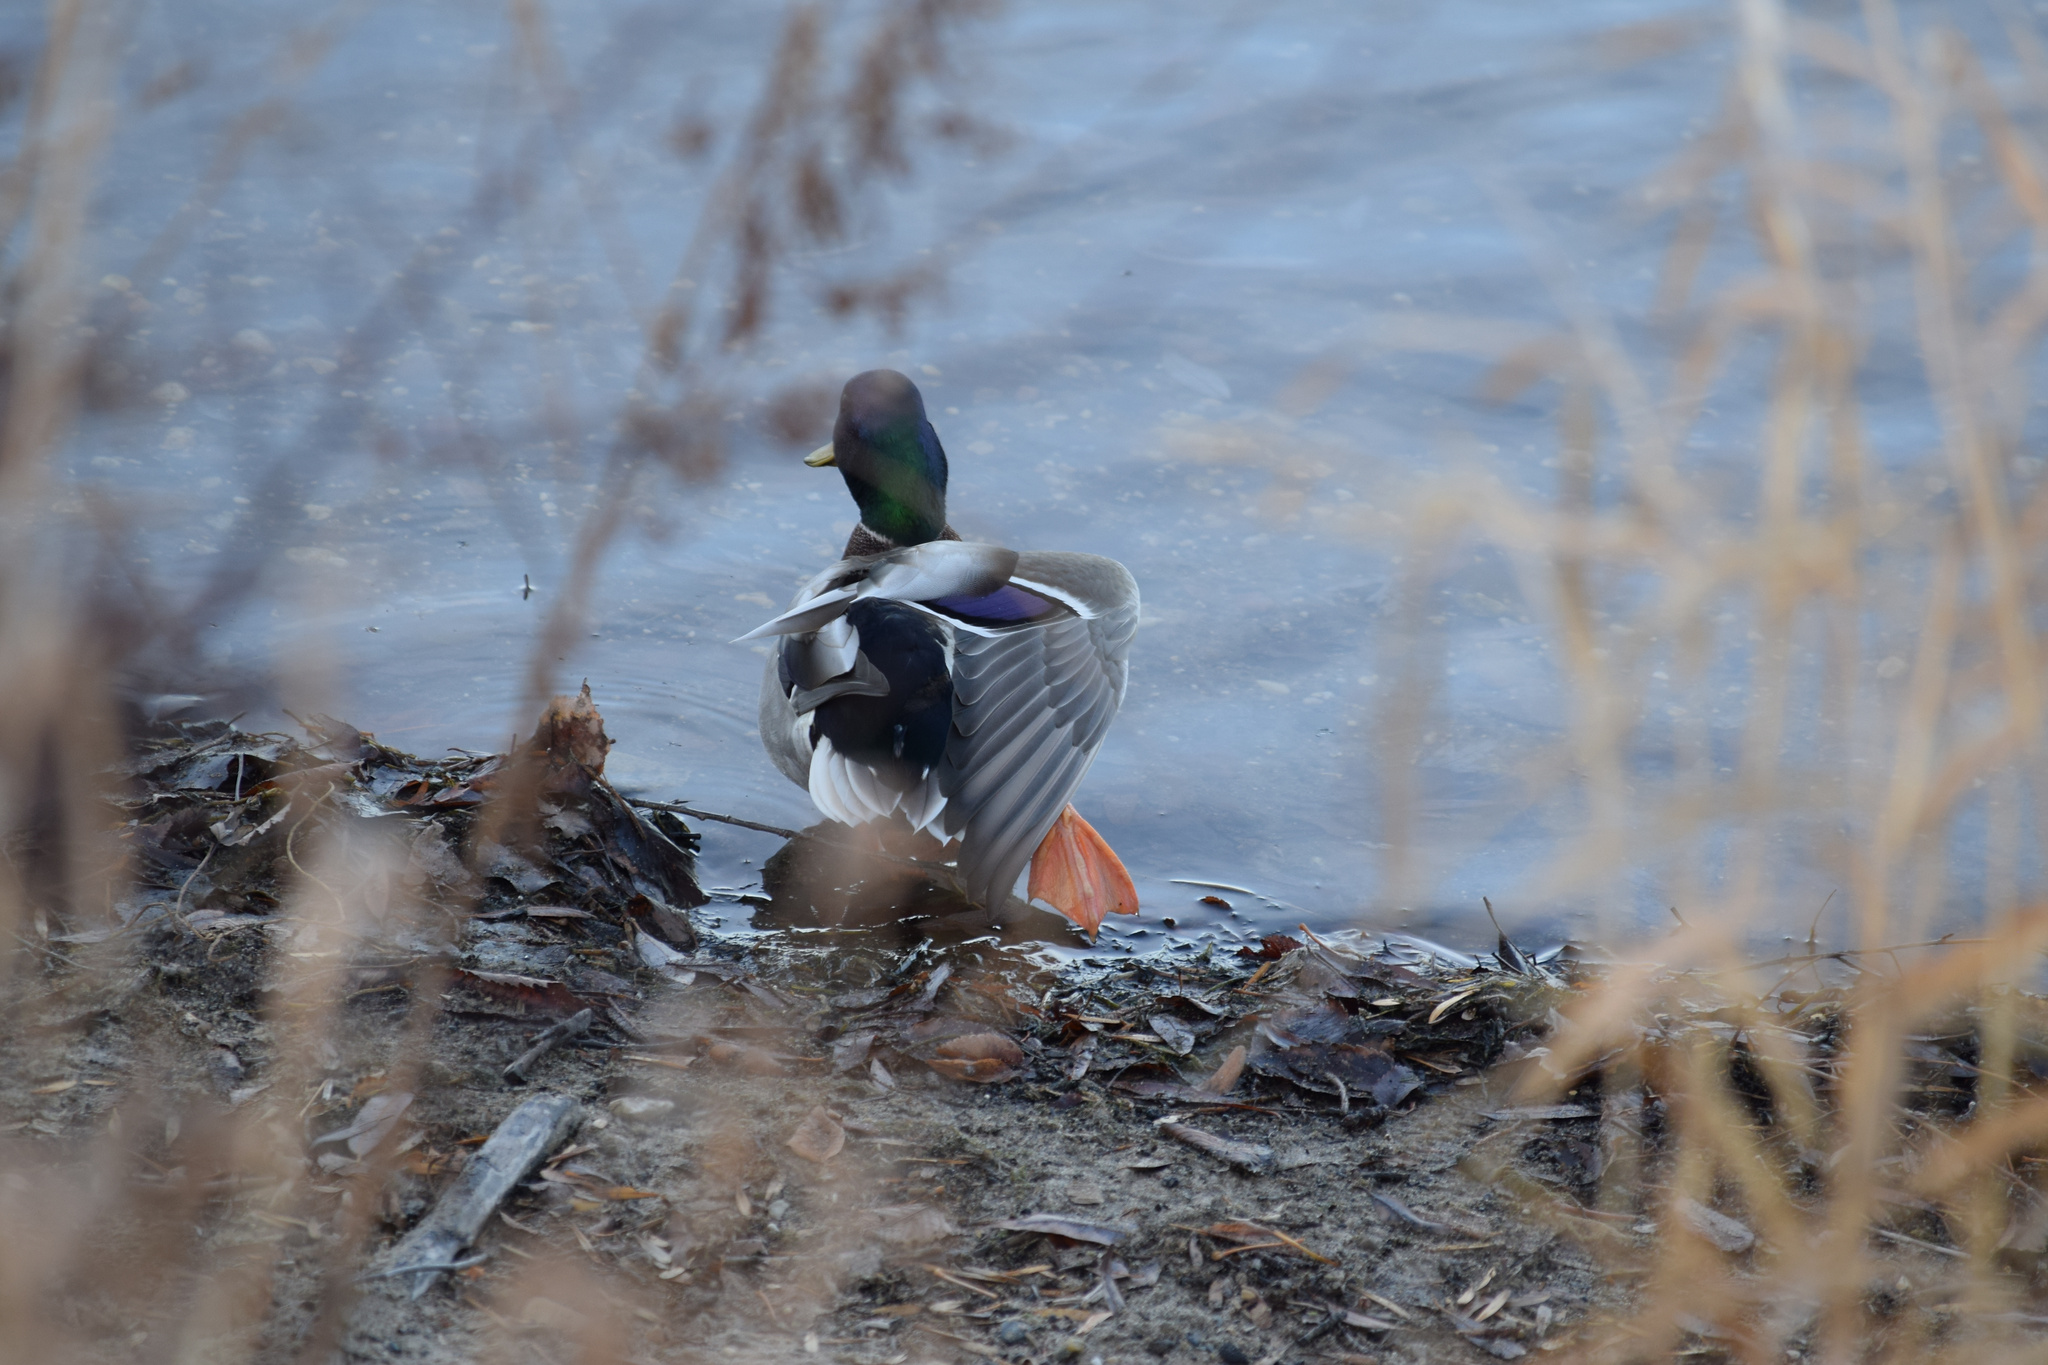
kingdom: Animalia
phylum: Chordata
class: Aves
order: Anseriformes
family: Anatidae
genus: Anas
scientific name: Anas platyrhynchos
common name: Mallard
